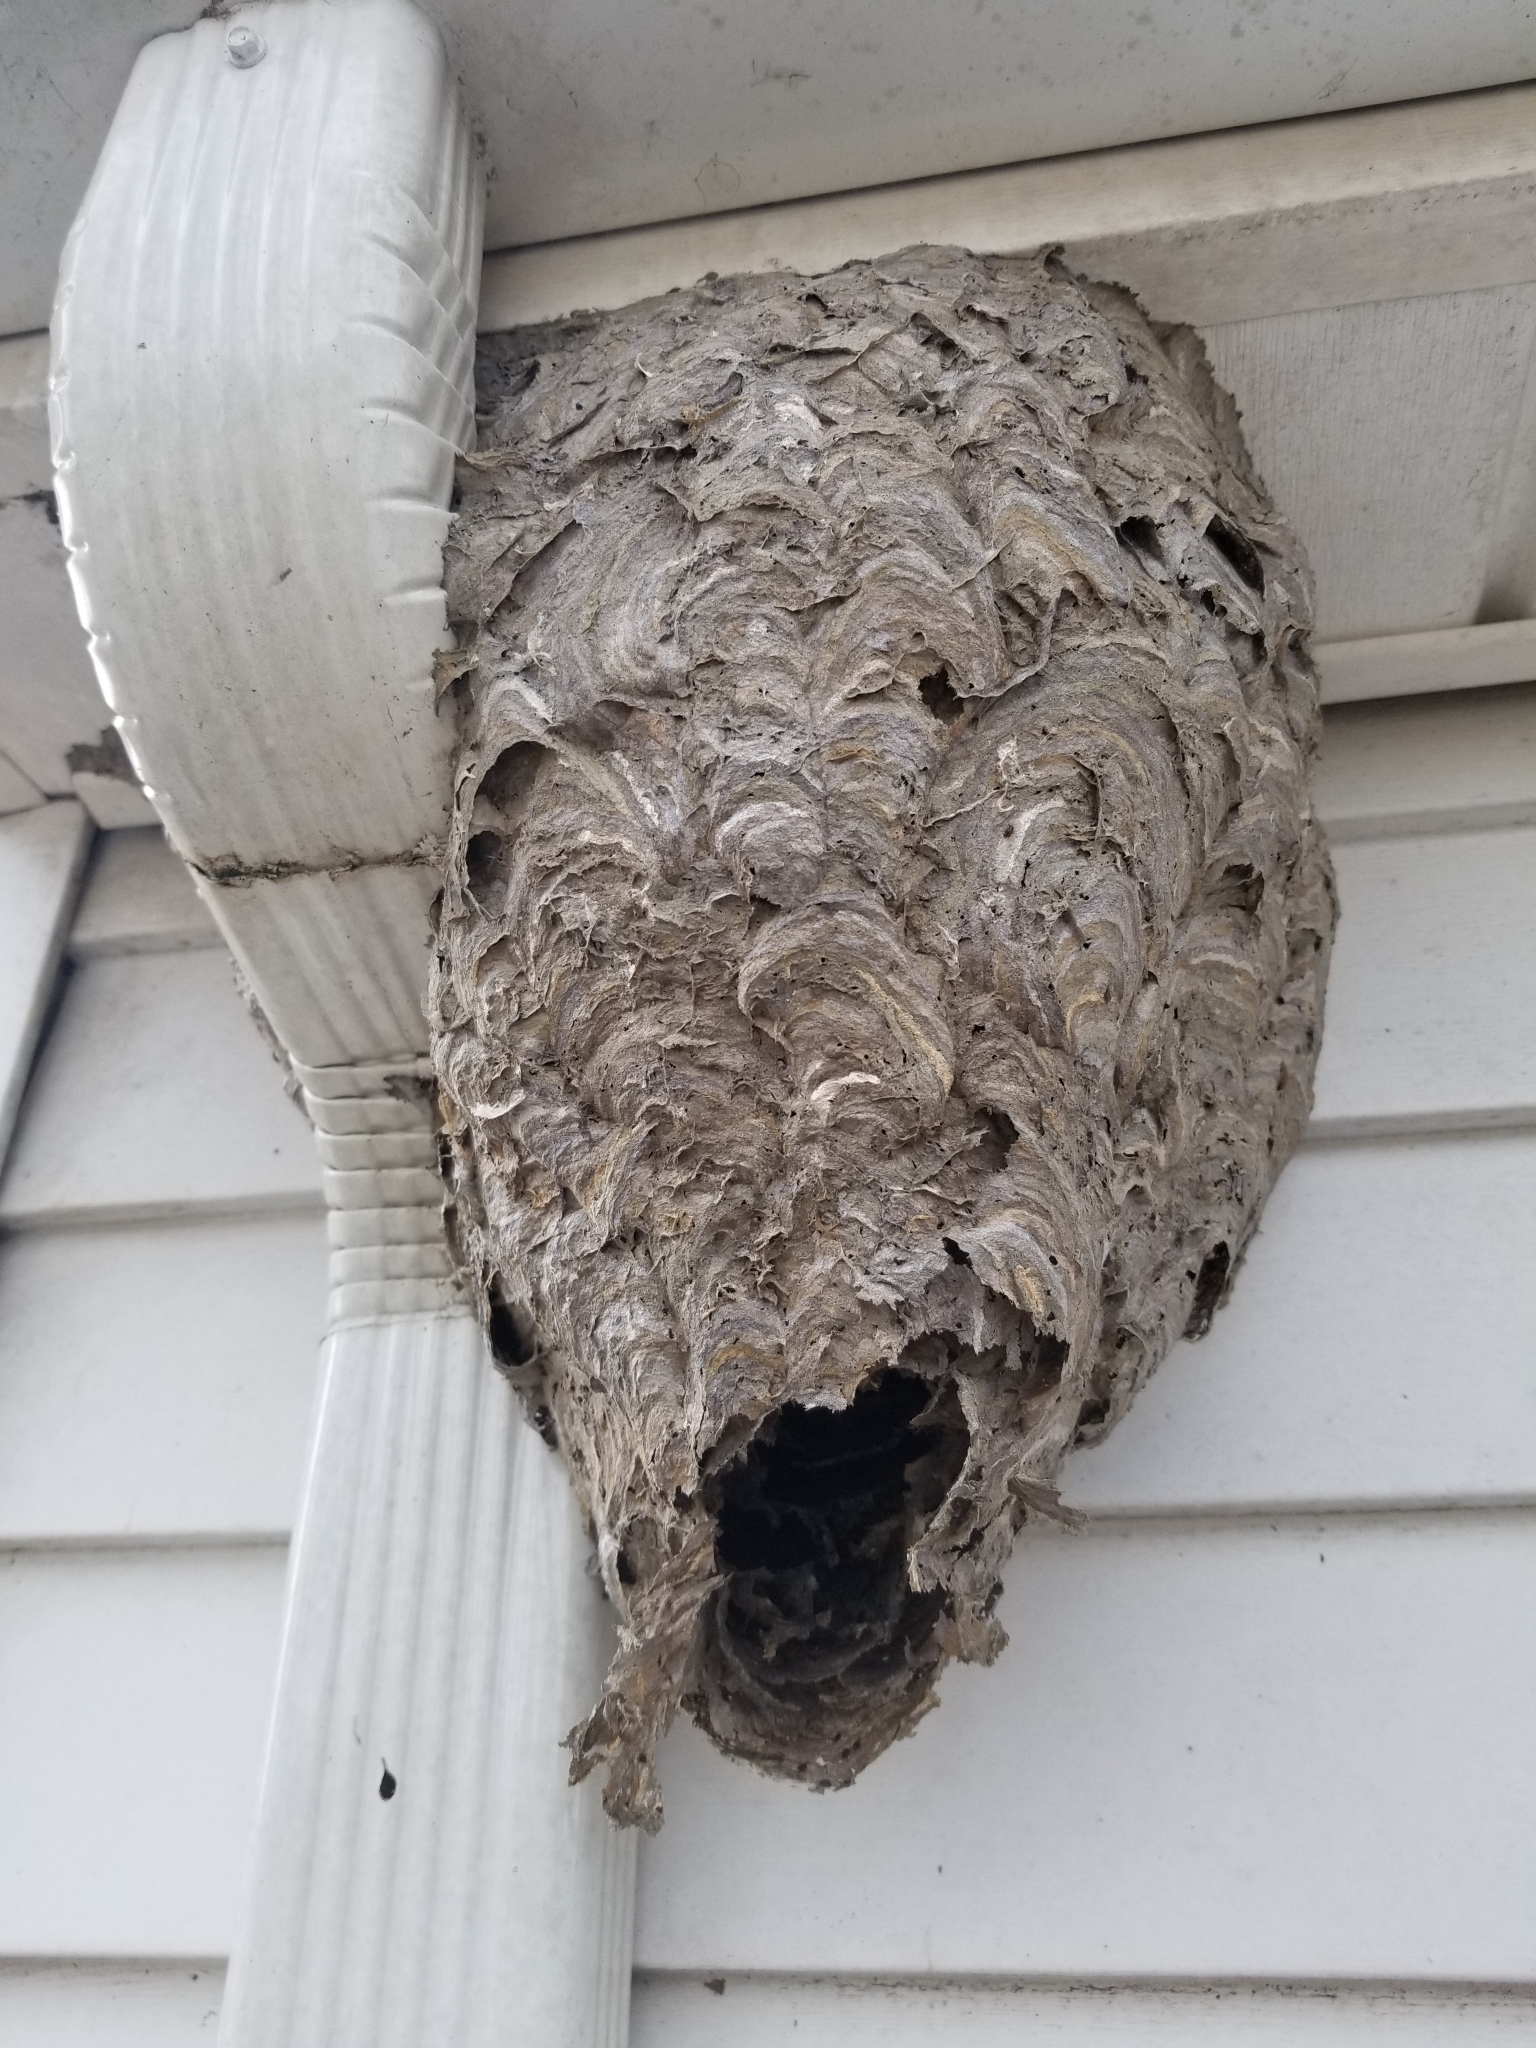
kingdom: Animalia
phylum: Arthropoda
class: Insecta
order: Hymenoptera
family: Vespidae
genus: Dolichovespula
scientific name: Dolichovespula maculata
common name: Bald-faced hornet
